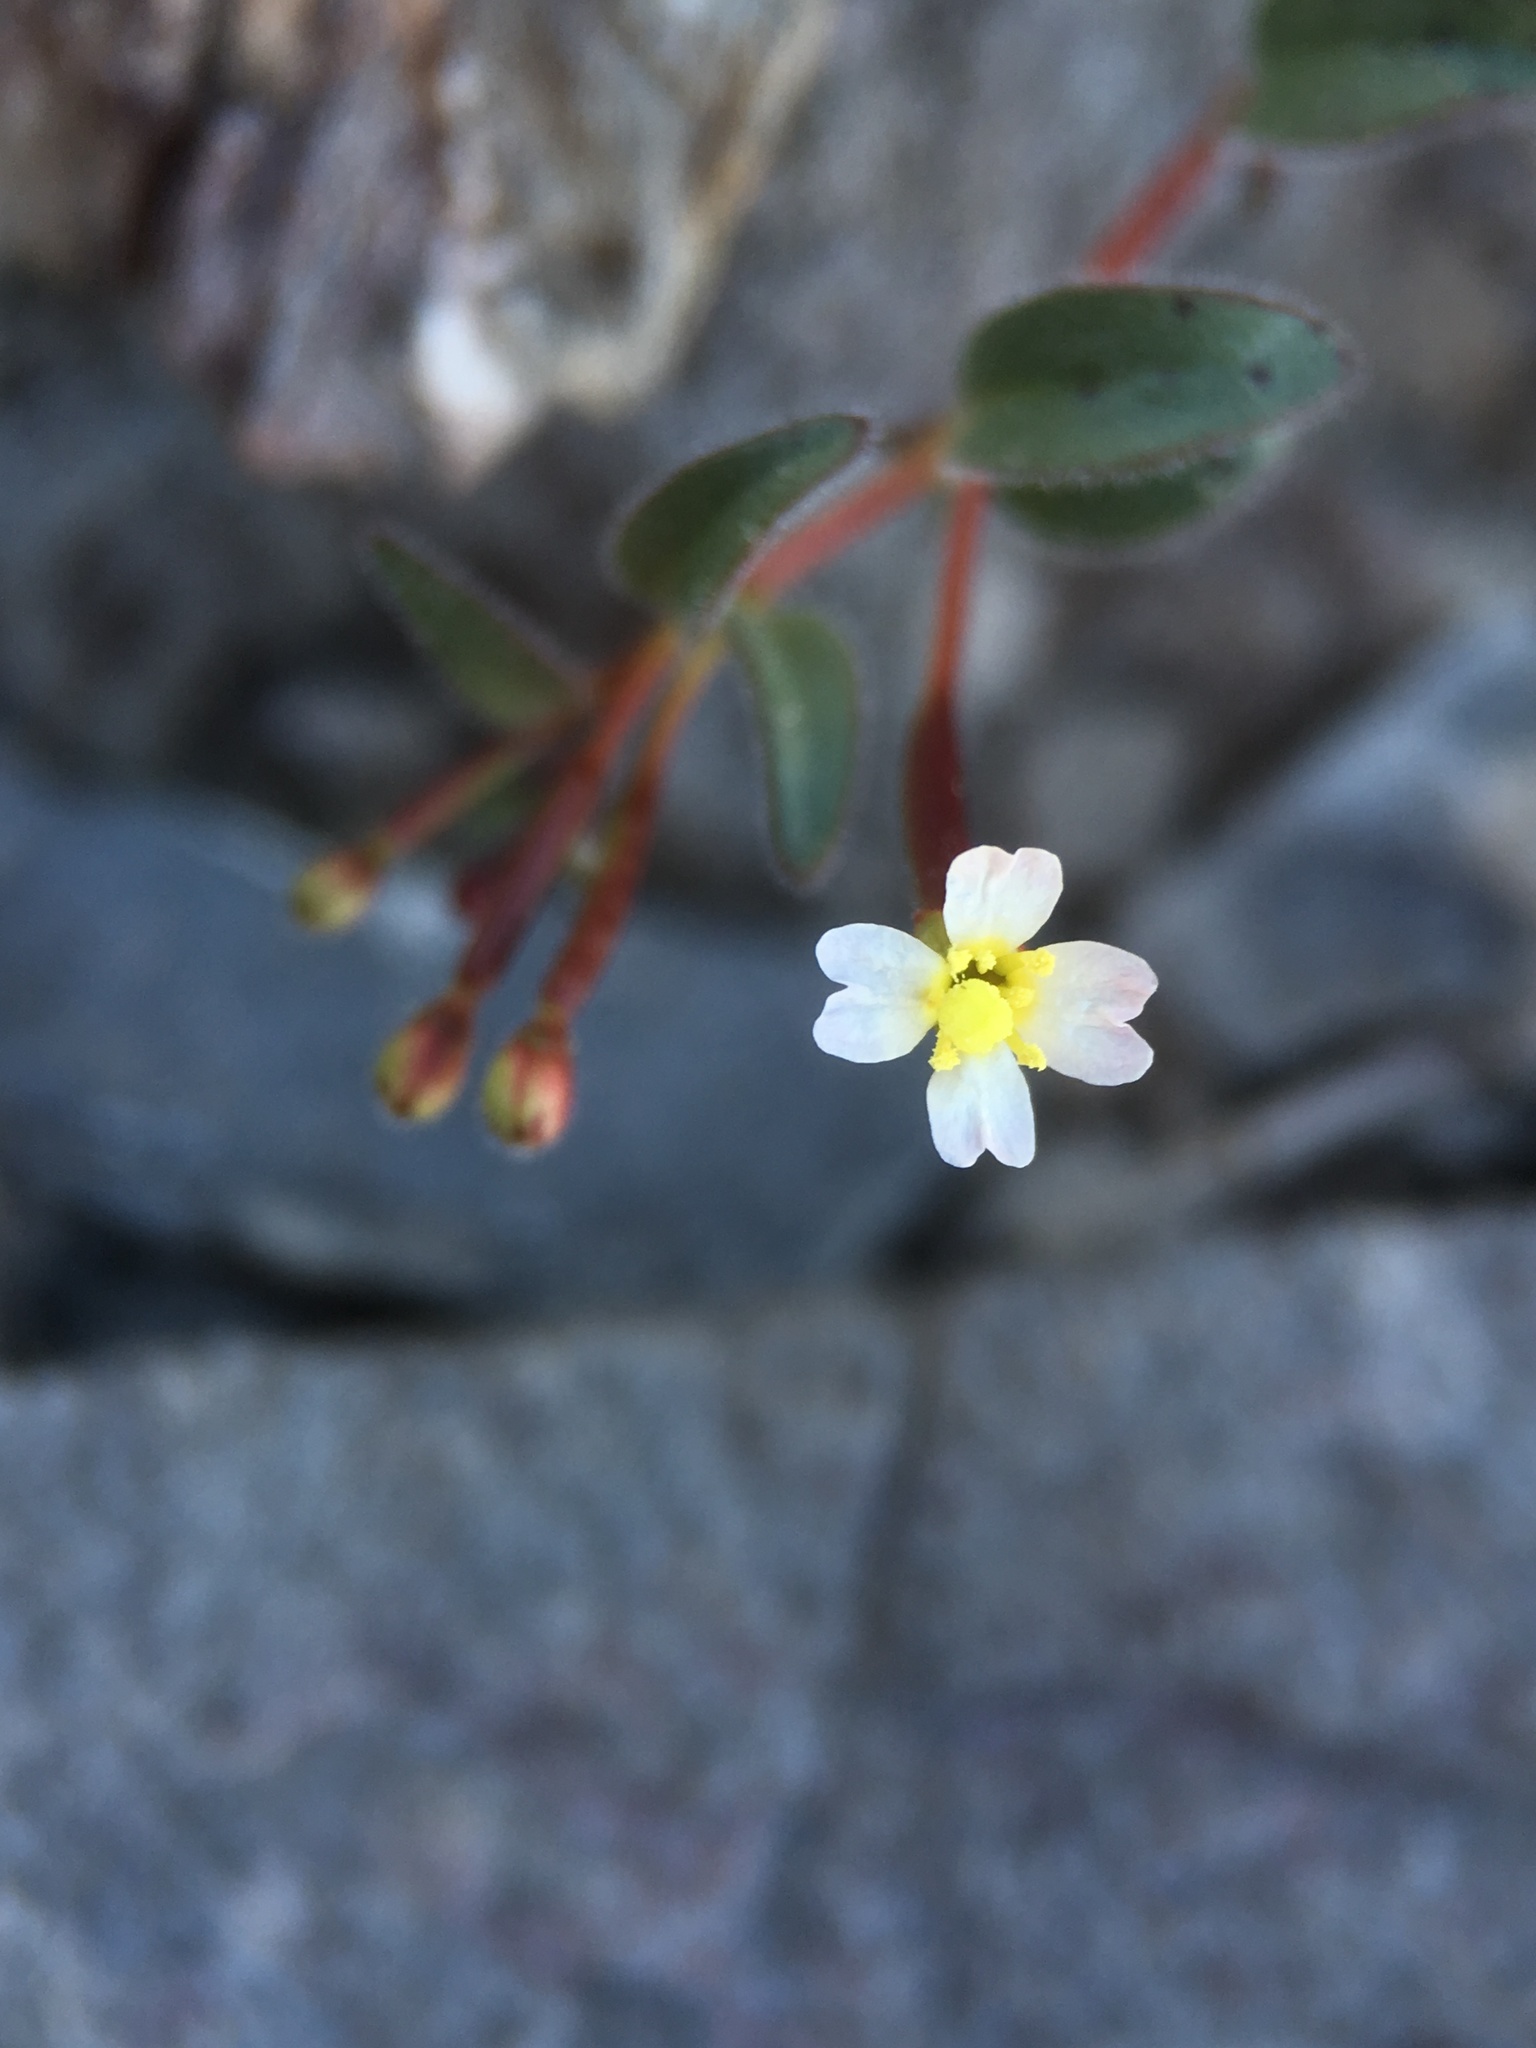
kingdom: Plantae
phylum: Tracheophyta
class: Magnoliopsida
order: Myrtales
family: Onagraceae
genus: Chylismiella
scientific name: Chylismiella pterosperma
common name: Wingfruit suncup
